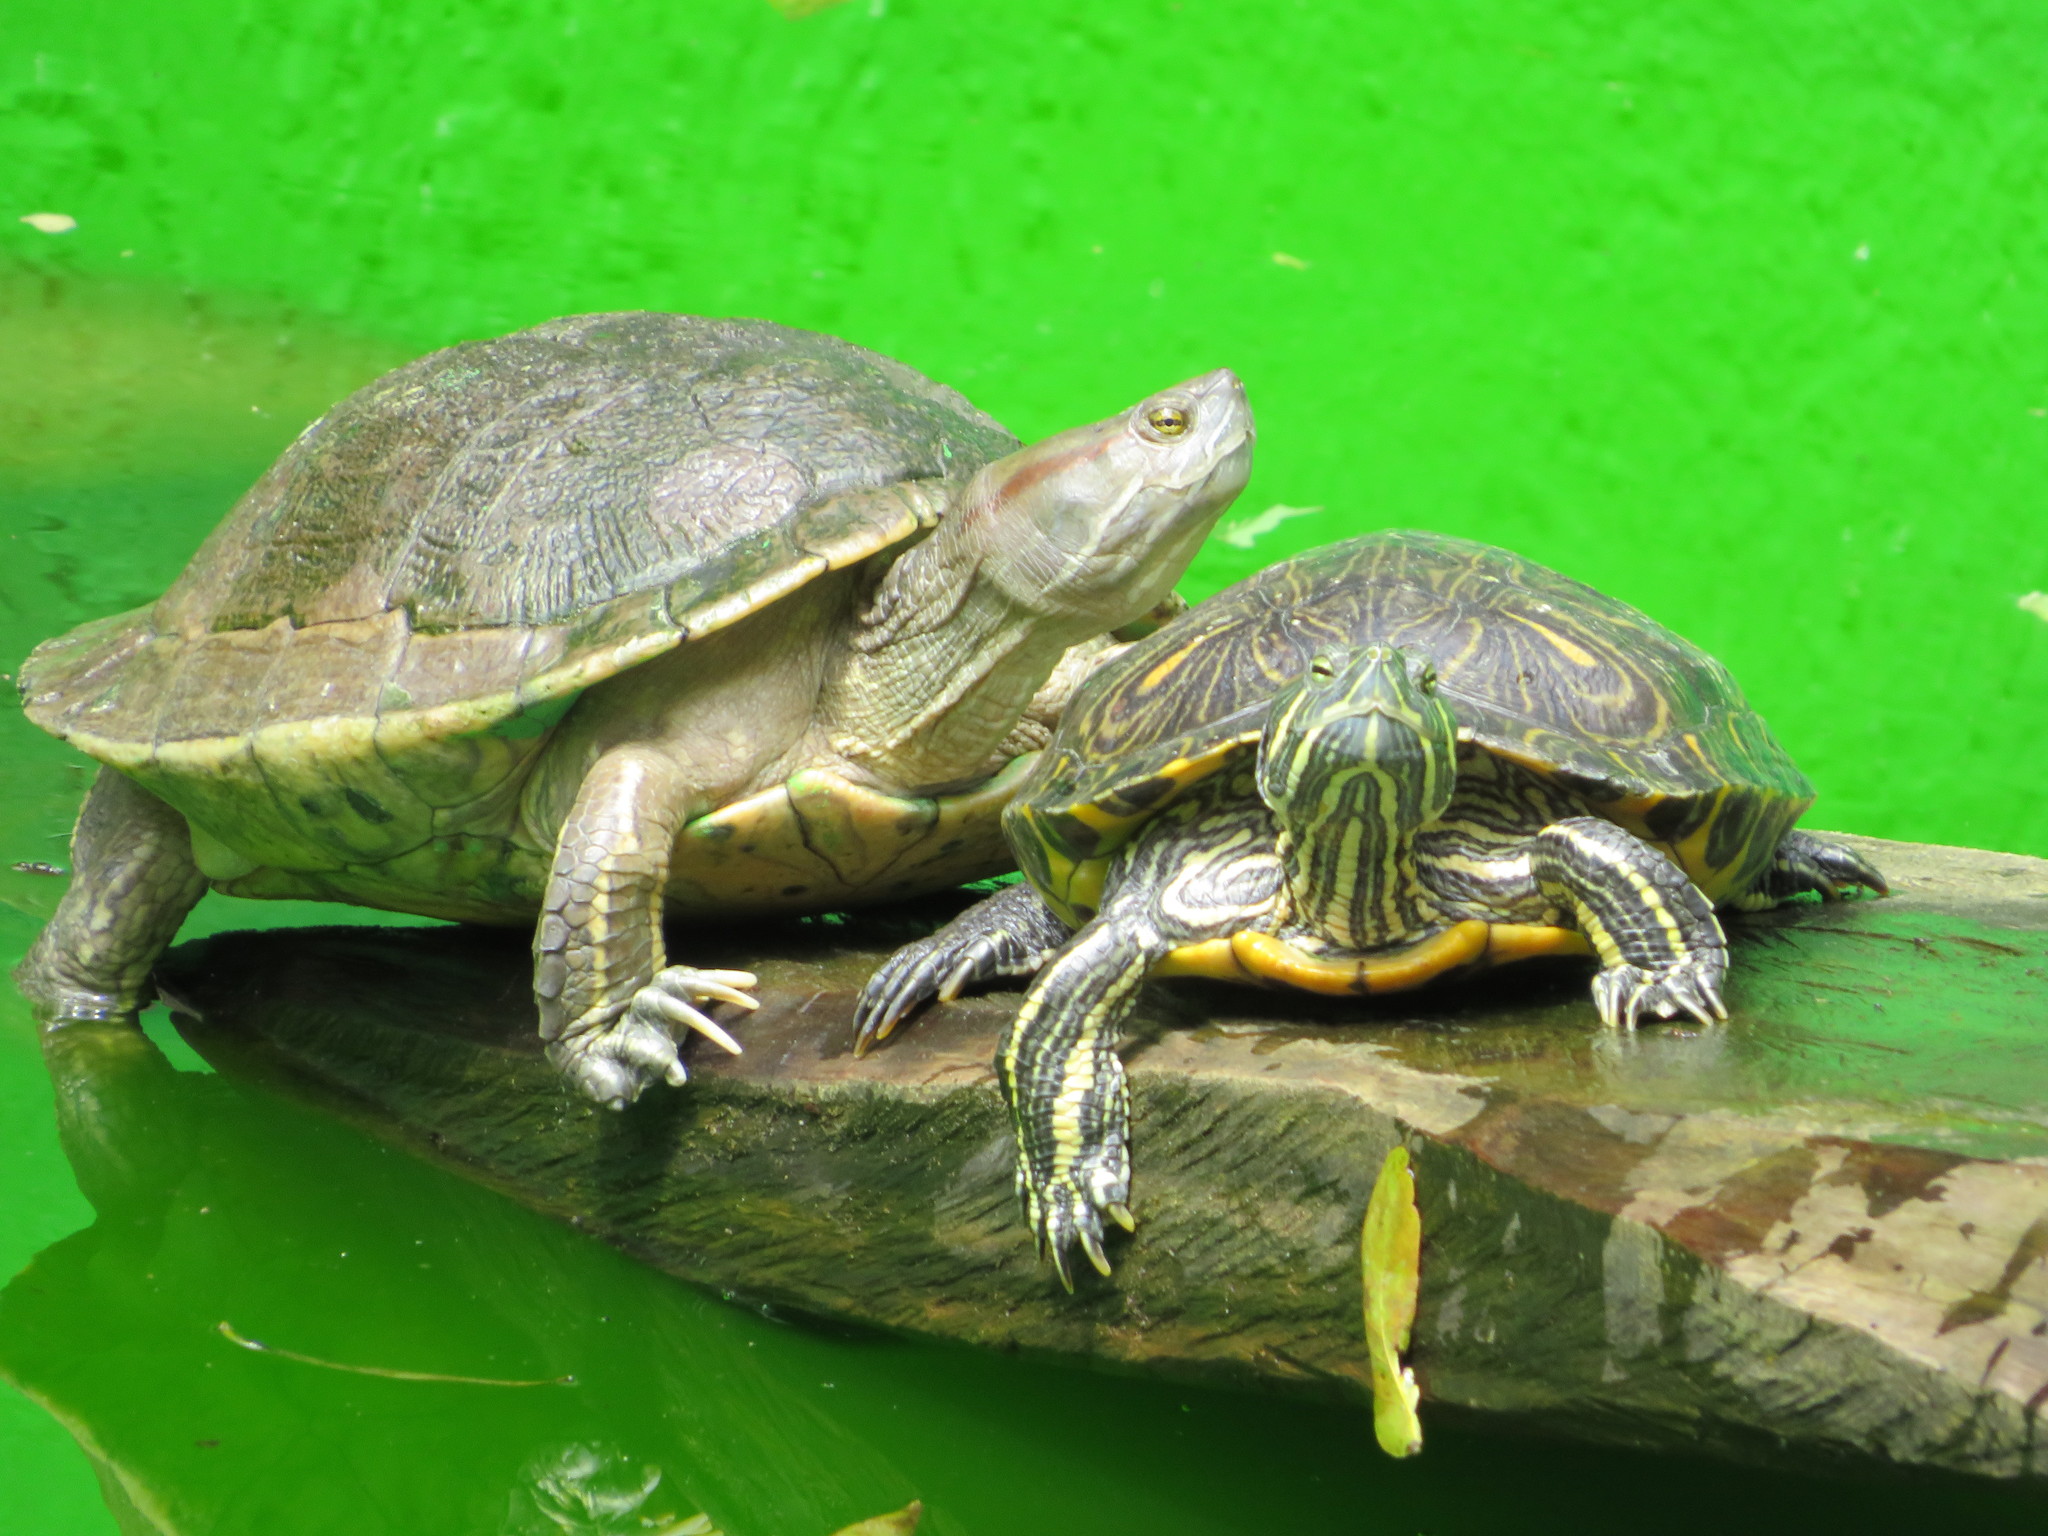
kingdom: Animalia
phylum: Chordata
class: Testudines
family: Emydidae
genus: Trachemys
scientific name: Trachemys scripta
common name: Slider
